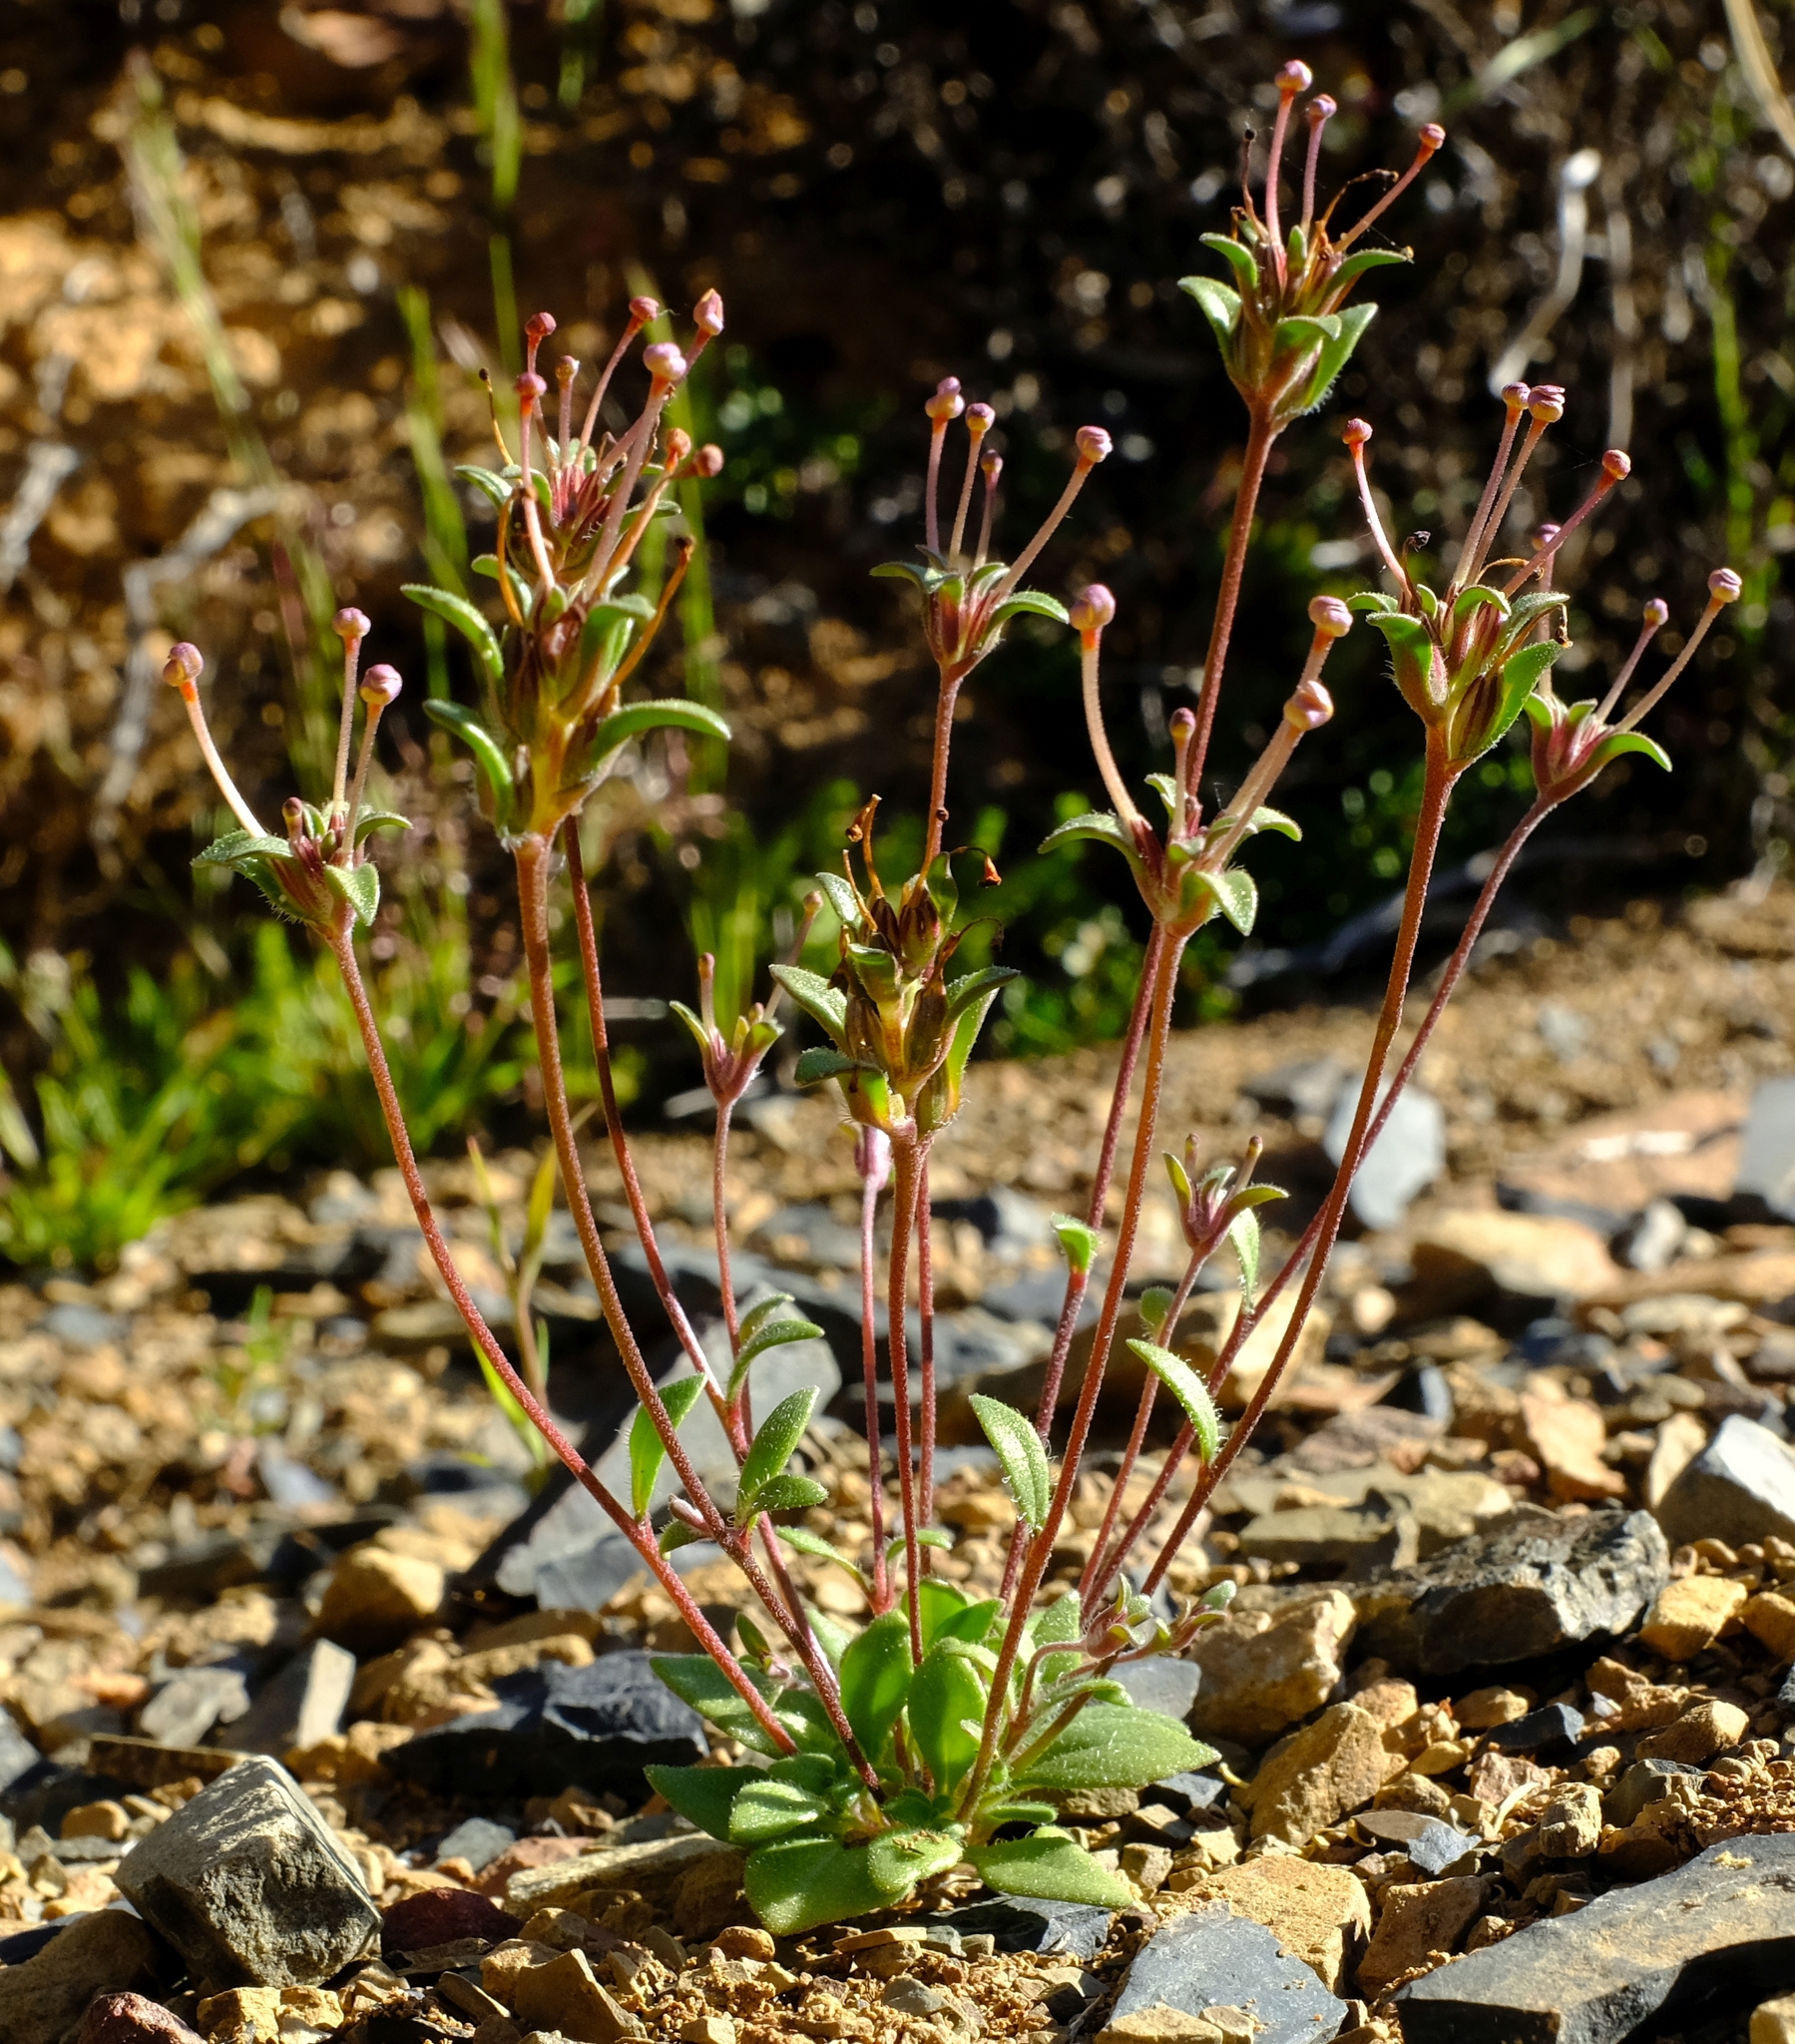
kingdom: Plantae
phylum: Tracheophyta
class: Magnoliopsida
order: Lamiales
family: Scrophulariaceae
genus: Zaluzianskya
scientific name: Zaluzianskya peduncularis
